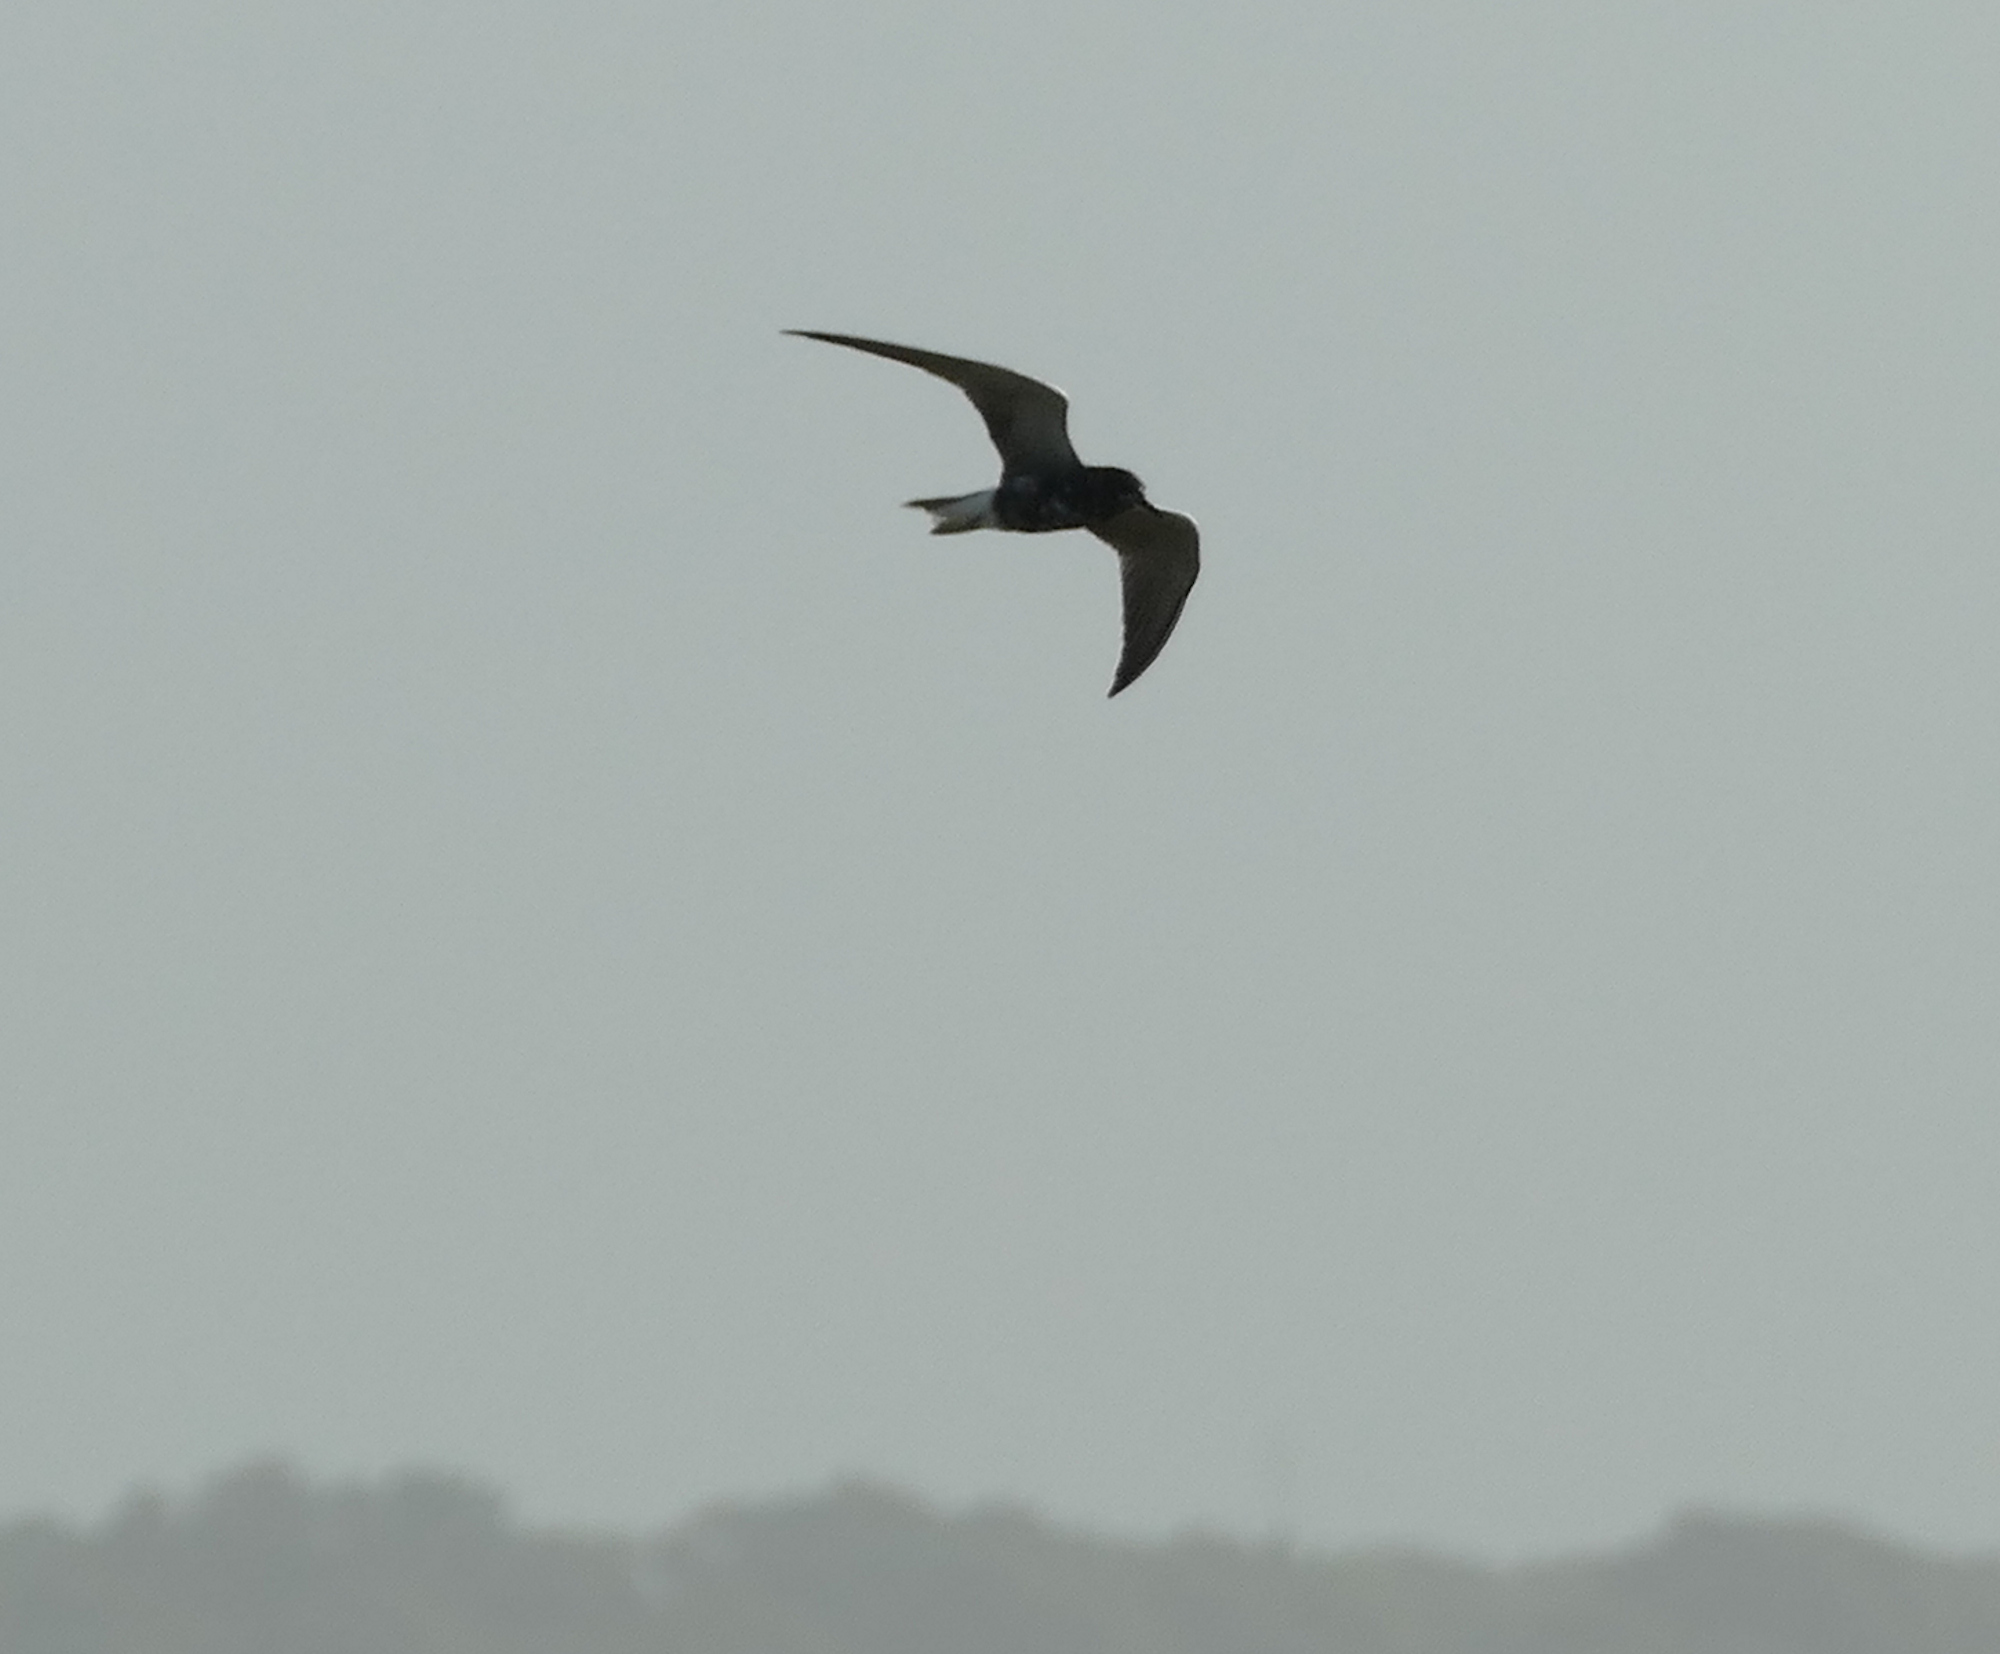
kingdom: Animalia
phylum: Chordata
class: Aves
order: Charadriiformes
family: Laridae
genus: Chlidonias
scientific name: Chlidonias niger
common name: Black tern
